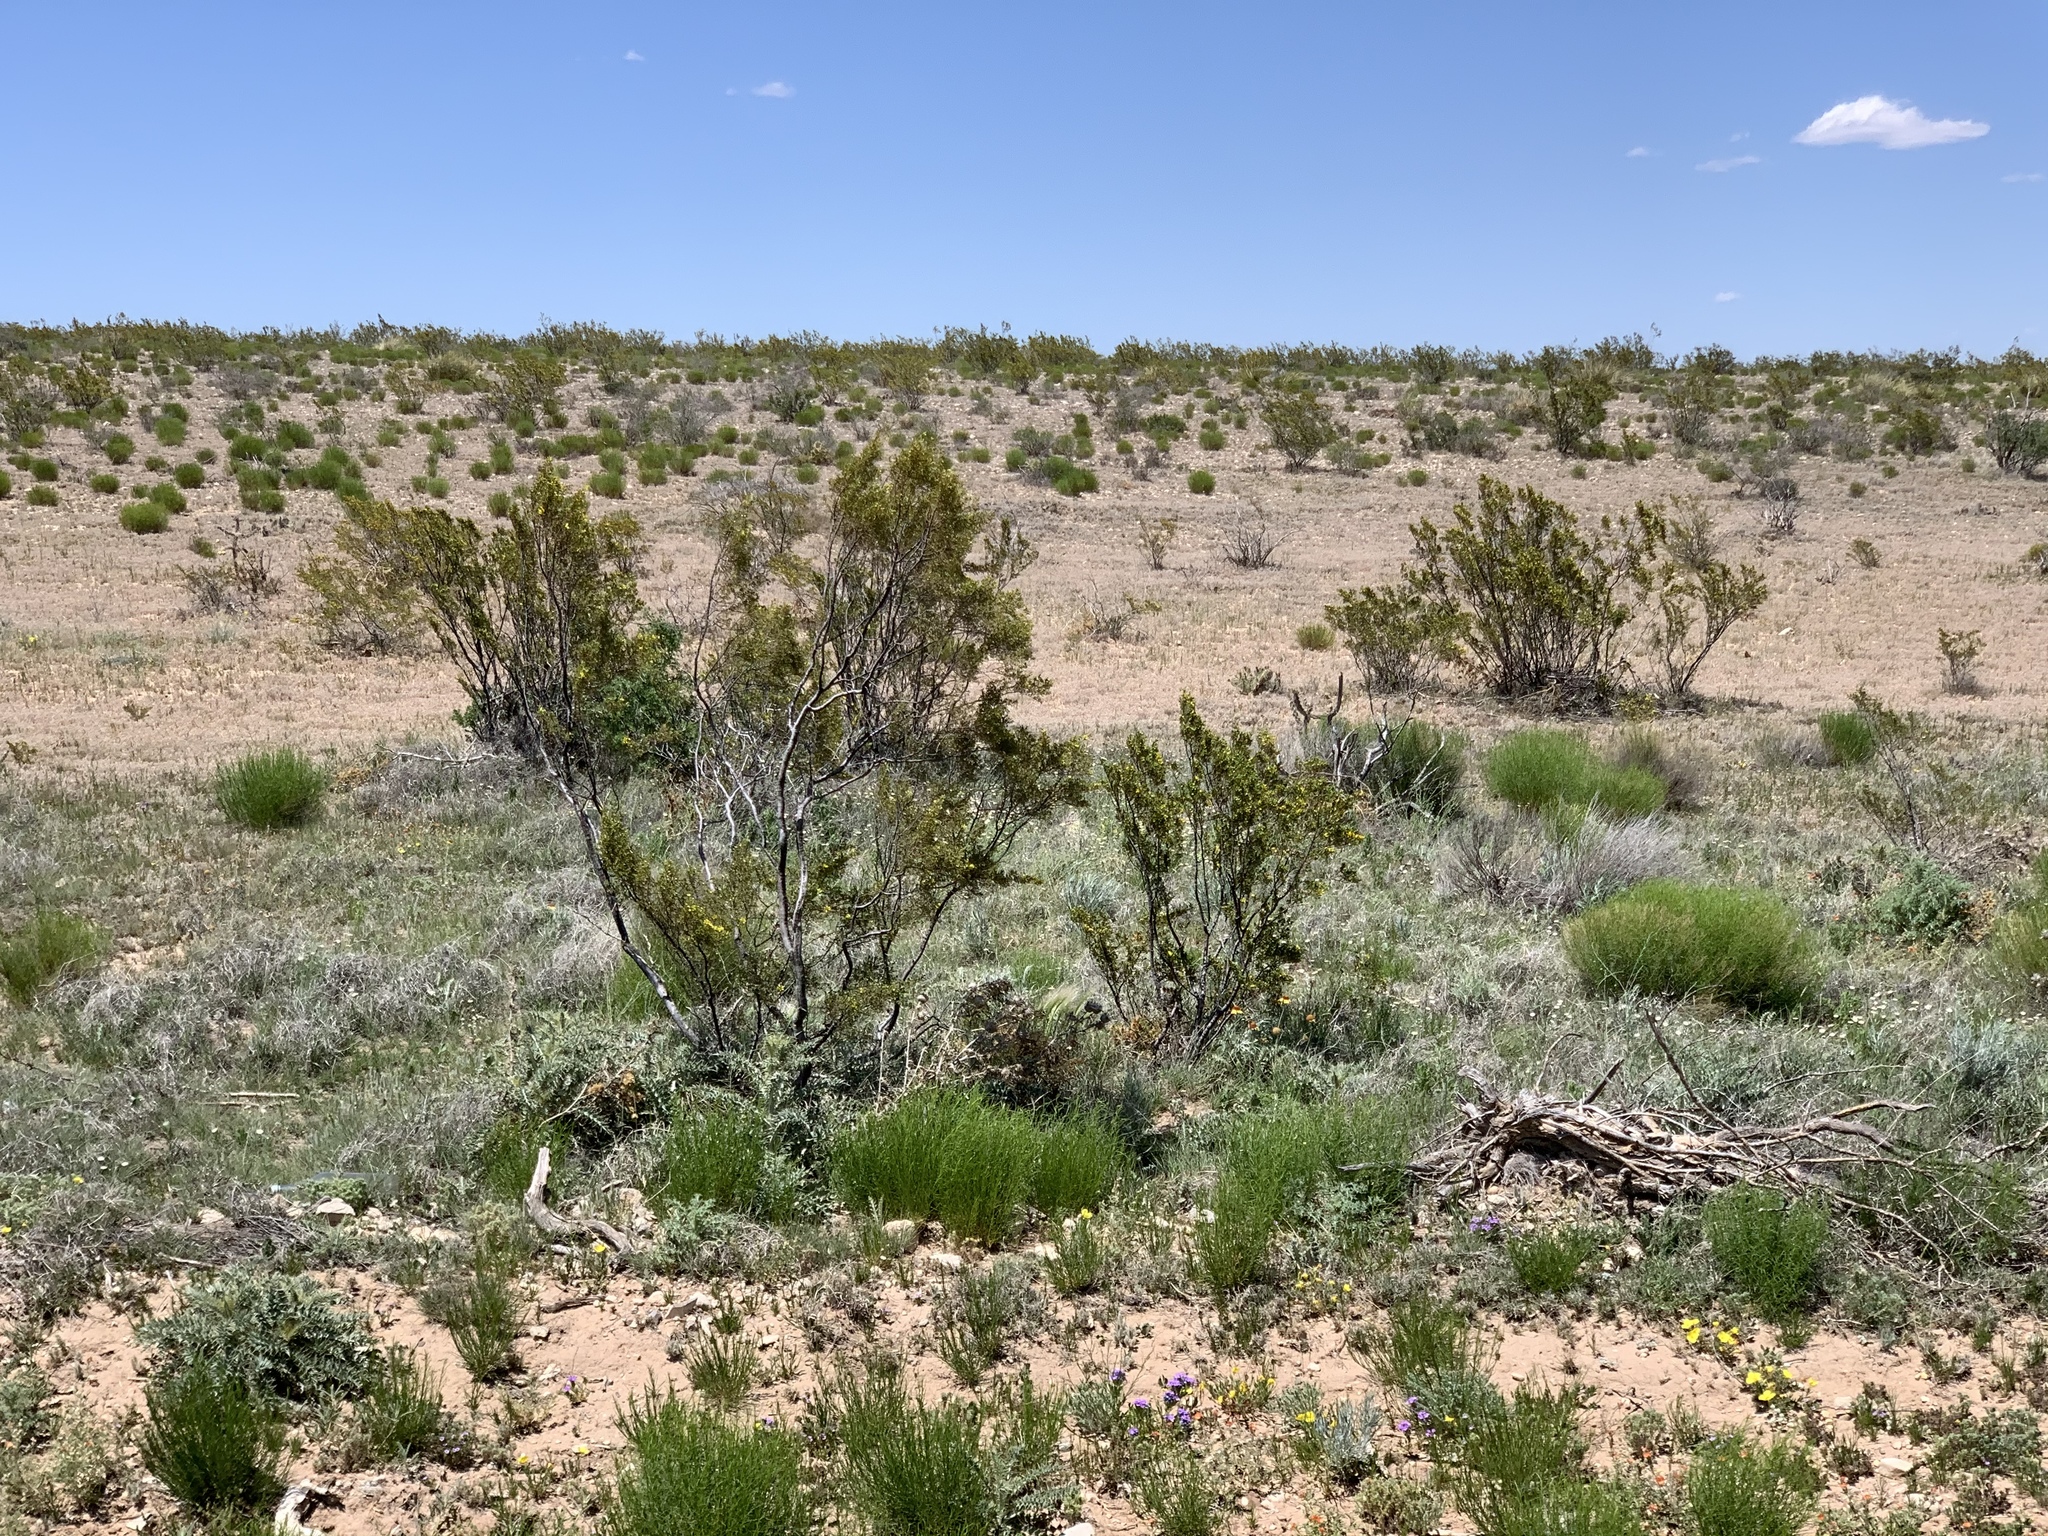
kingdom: Plantae
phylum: Tracheophyta
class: Magnoliopsida
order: Zygophyllales
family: Zygophyllaceae
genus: Larrea
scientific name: Larrea tridentata
